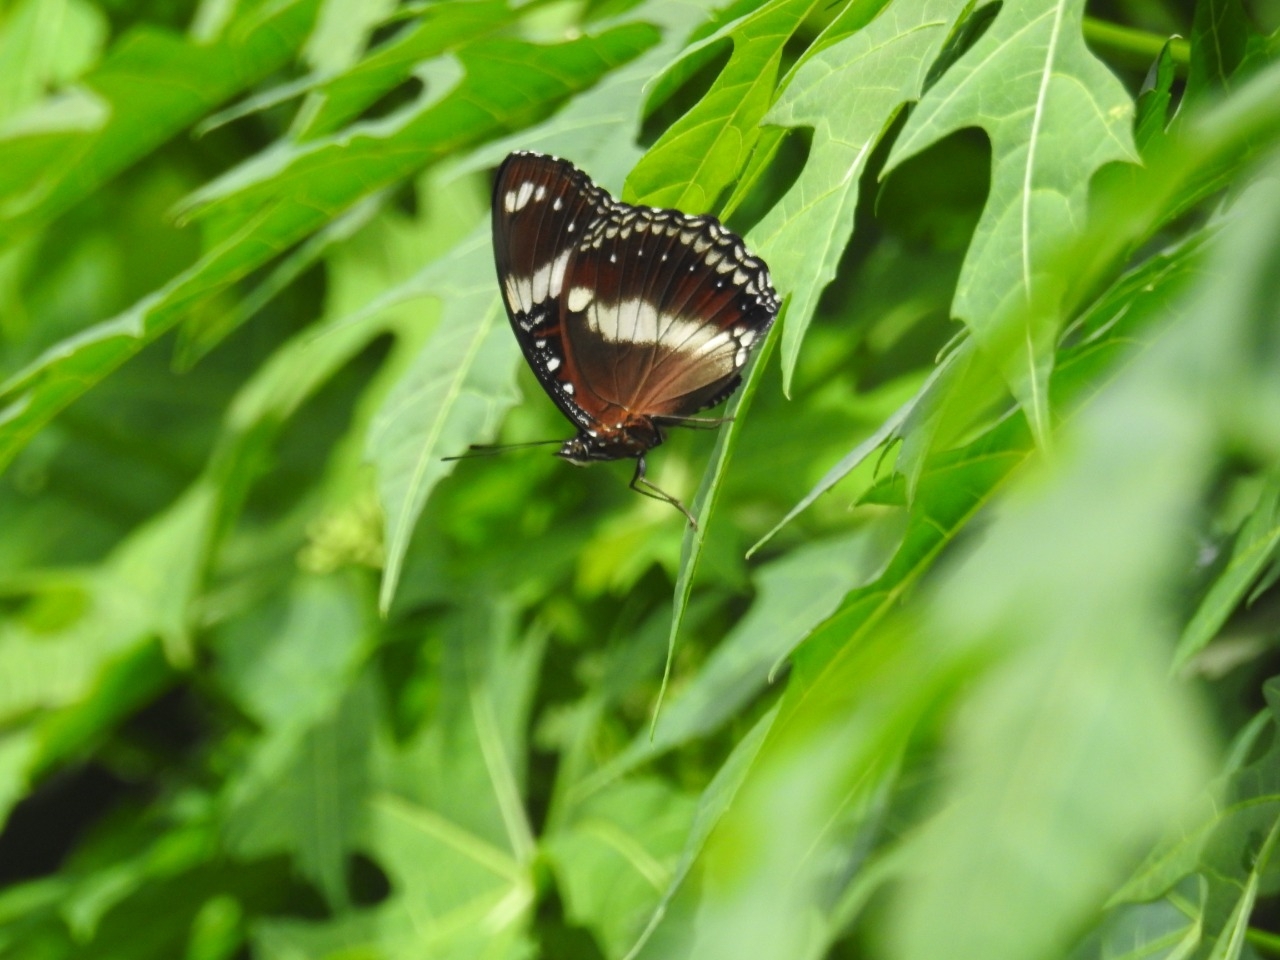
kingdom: Animalia
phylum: Arthropoda
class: Insecta
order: Lepidoptera
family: Nymphalidae
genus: Hypolimnas
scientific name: Hypolimnas bolina
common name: Great eggfly
